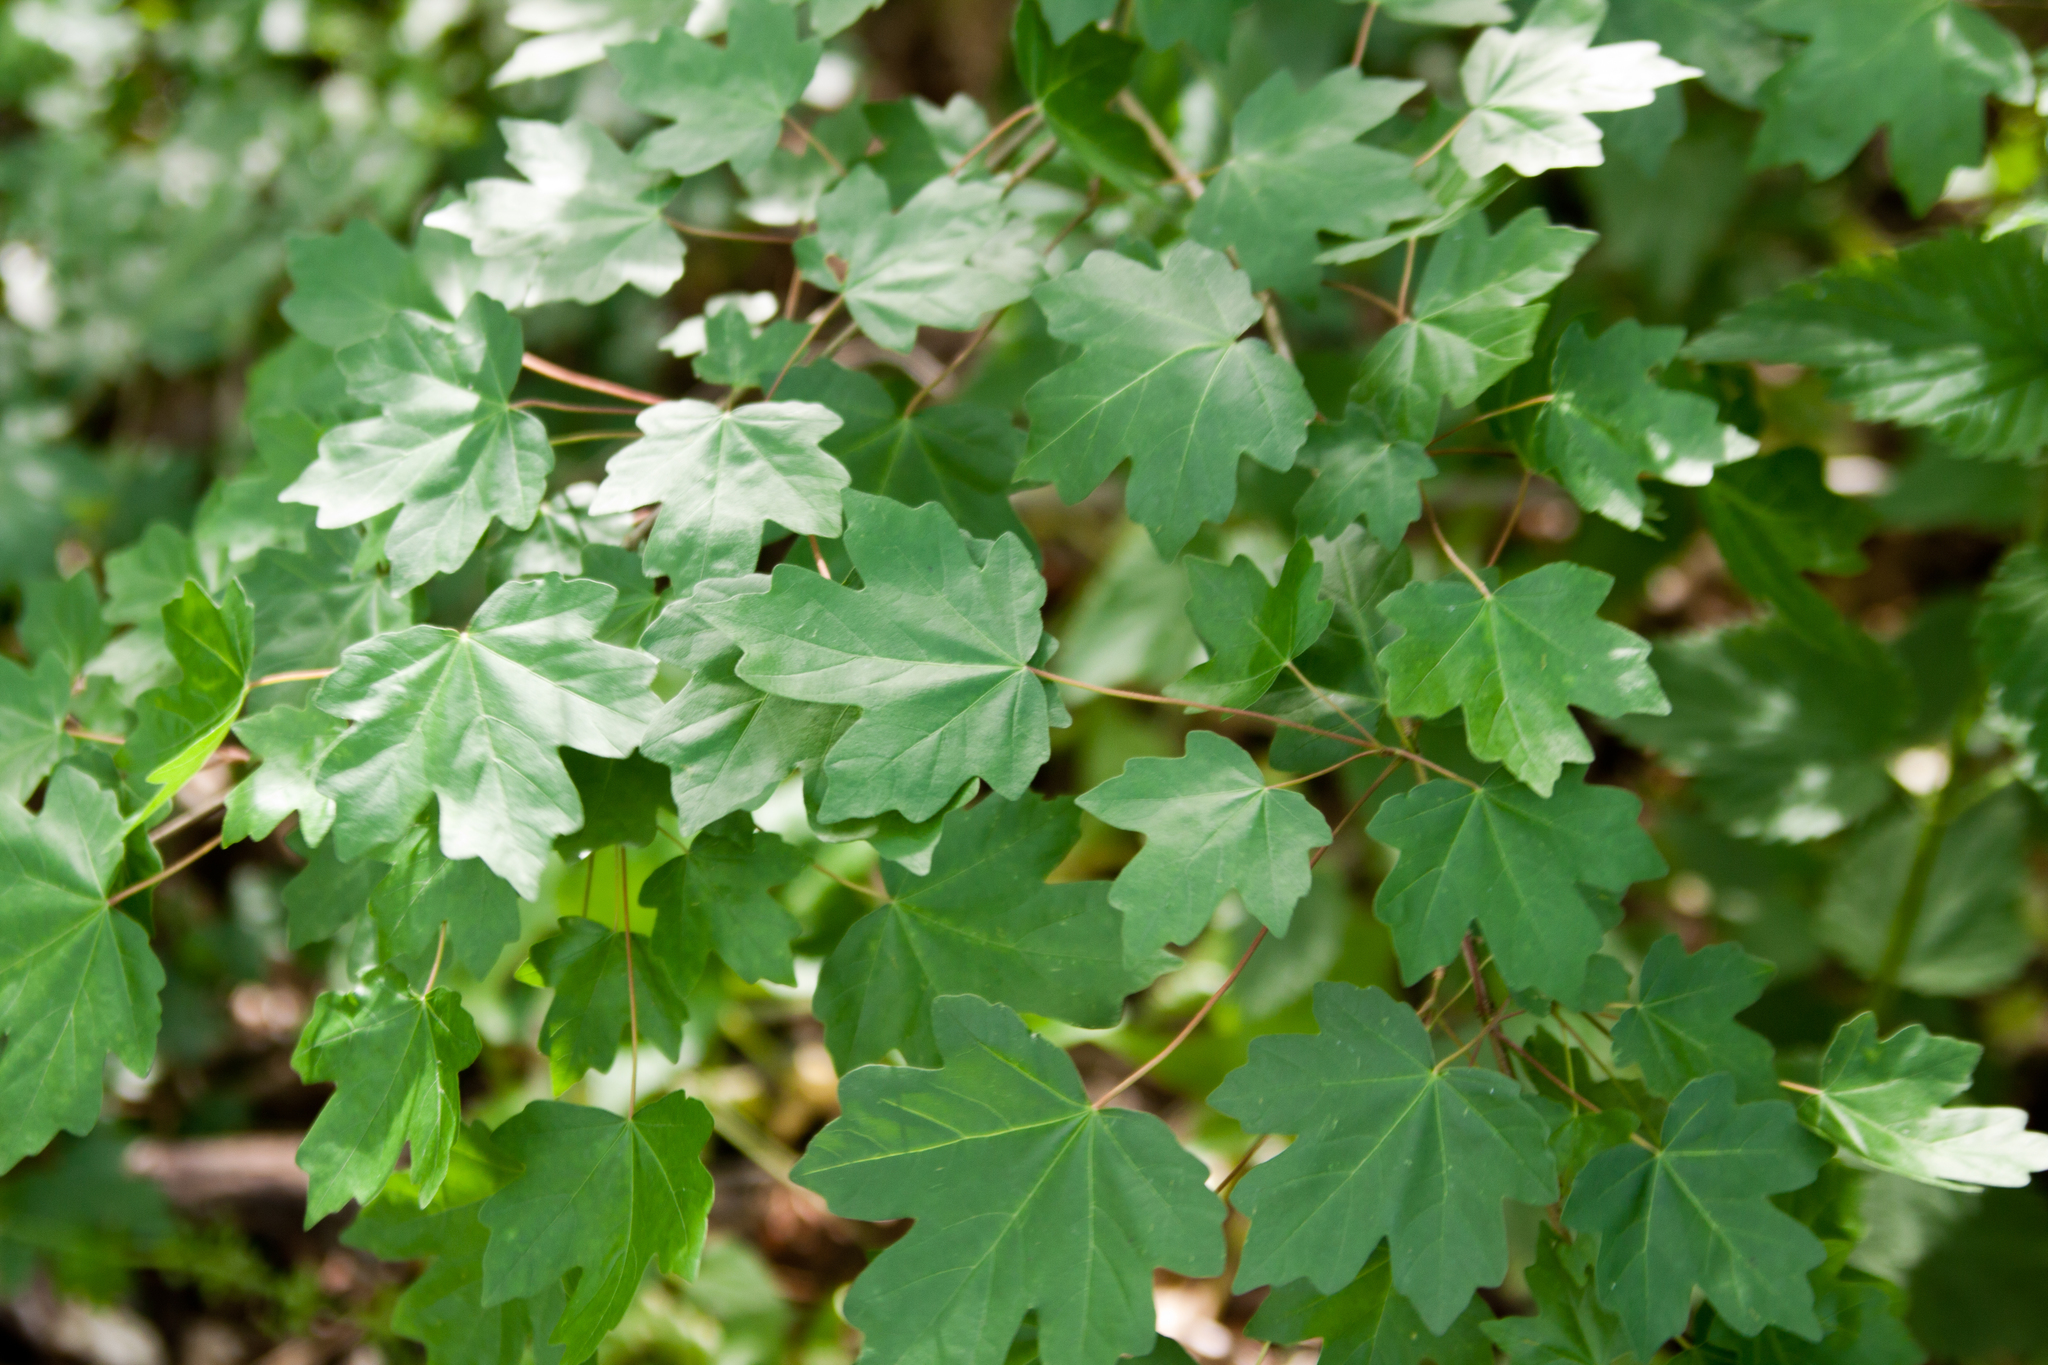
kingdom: Plantae
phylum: Tracheophyta
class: Magnoliopsida
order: Sapindales
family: Sapindaceae
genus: Acer
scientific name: Acer campestre
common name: Field maple
